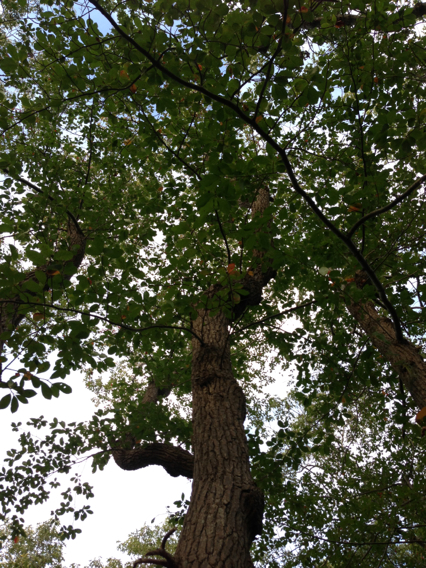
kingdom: Plantae
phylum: Tracheophyta
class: Magnoliopsida
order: Cornales
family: Nyssaceae
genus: Nyssa
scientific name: Nyssa sylvatica
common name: Black tupelo
